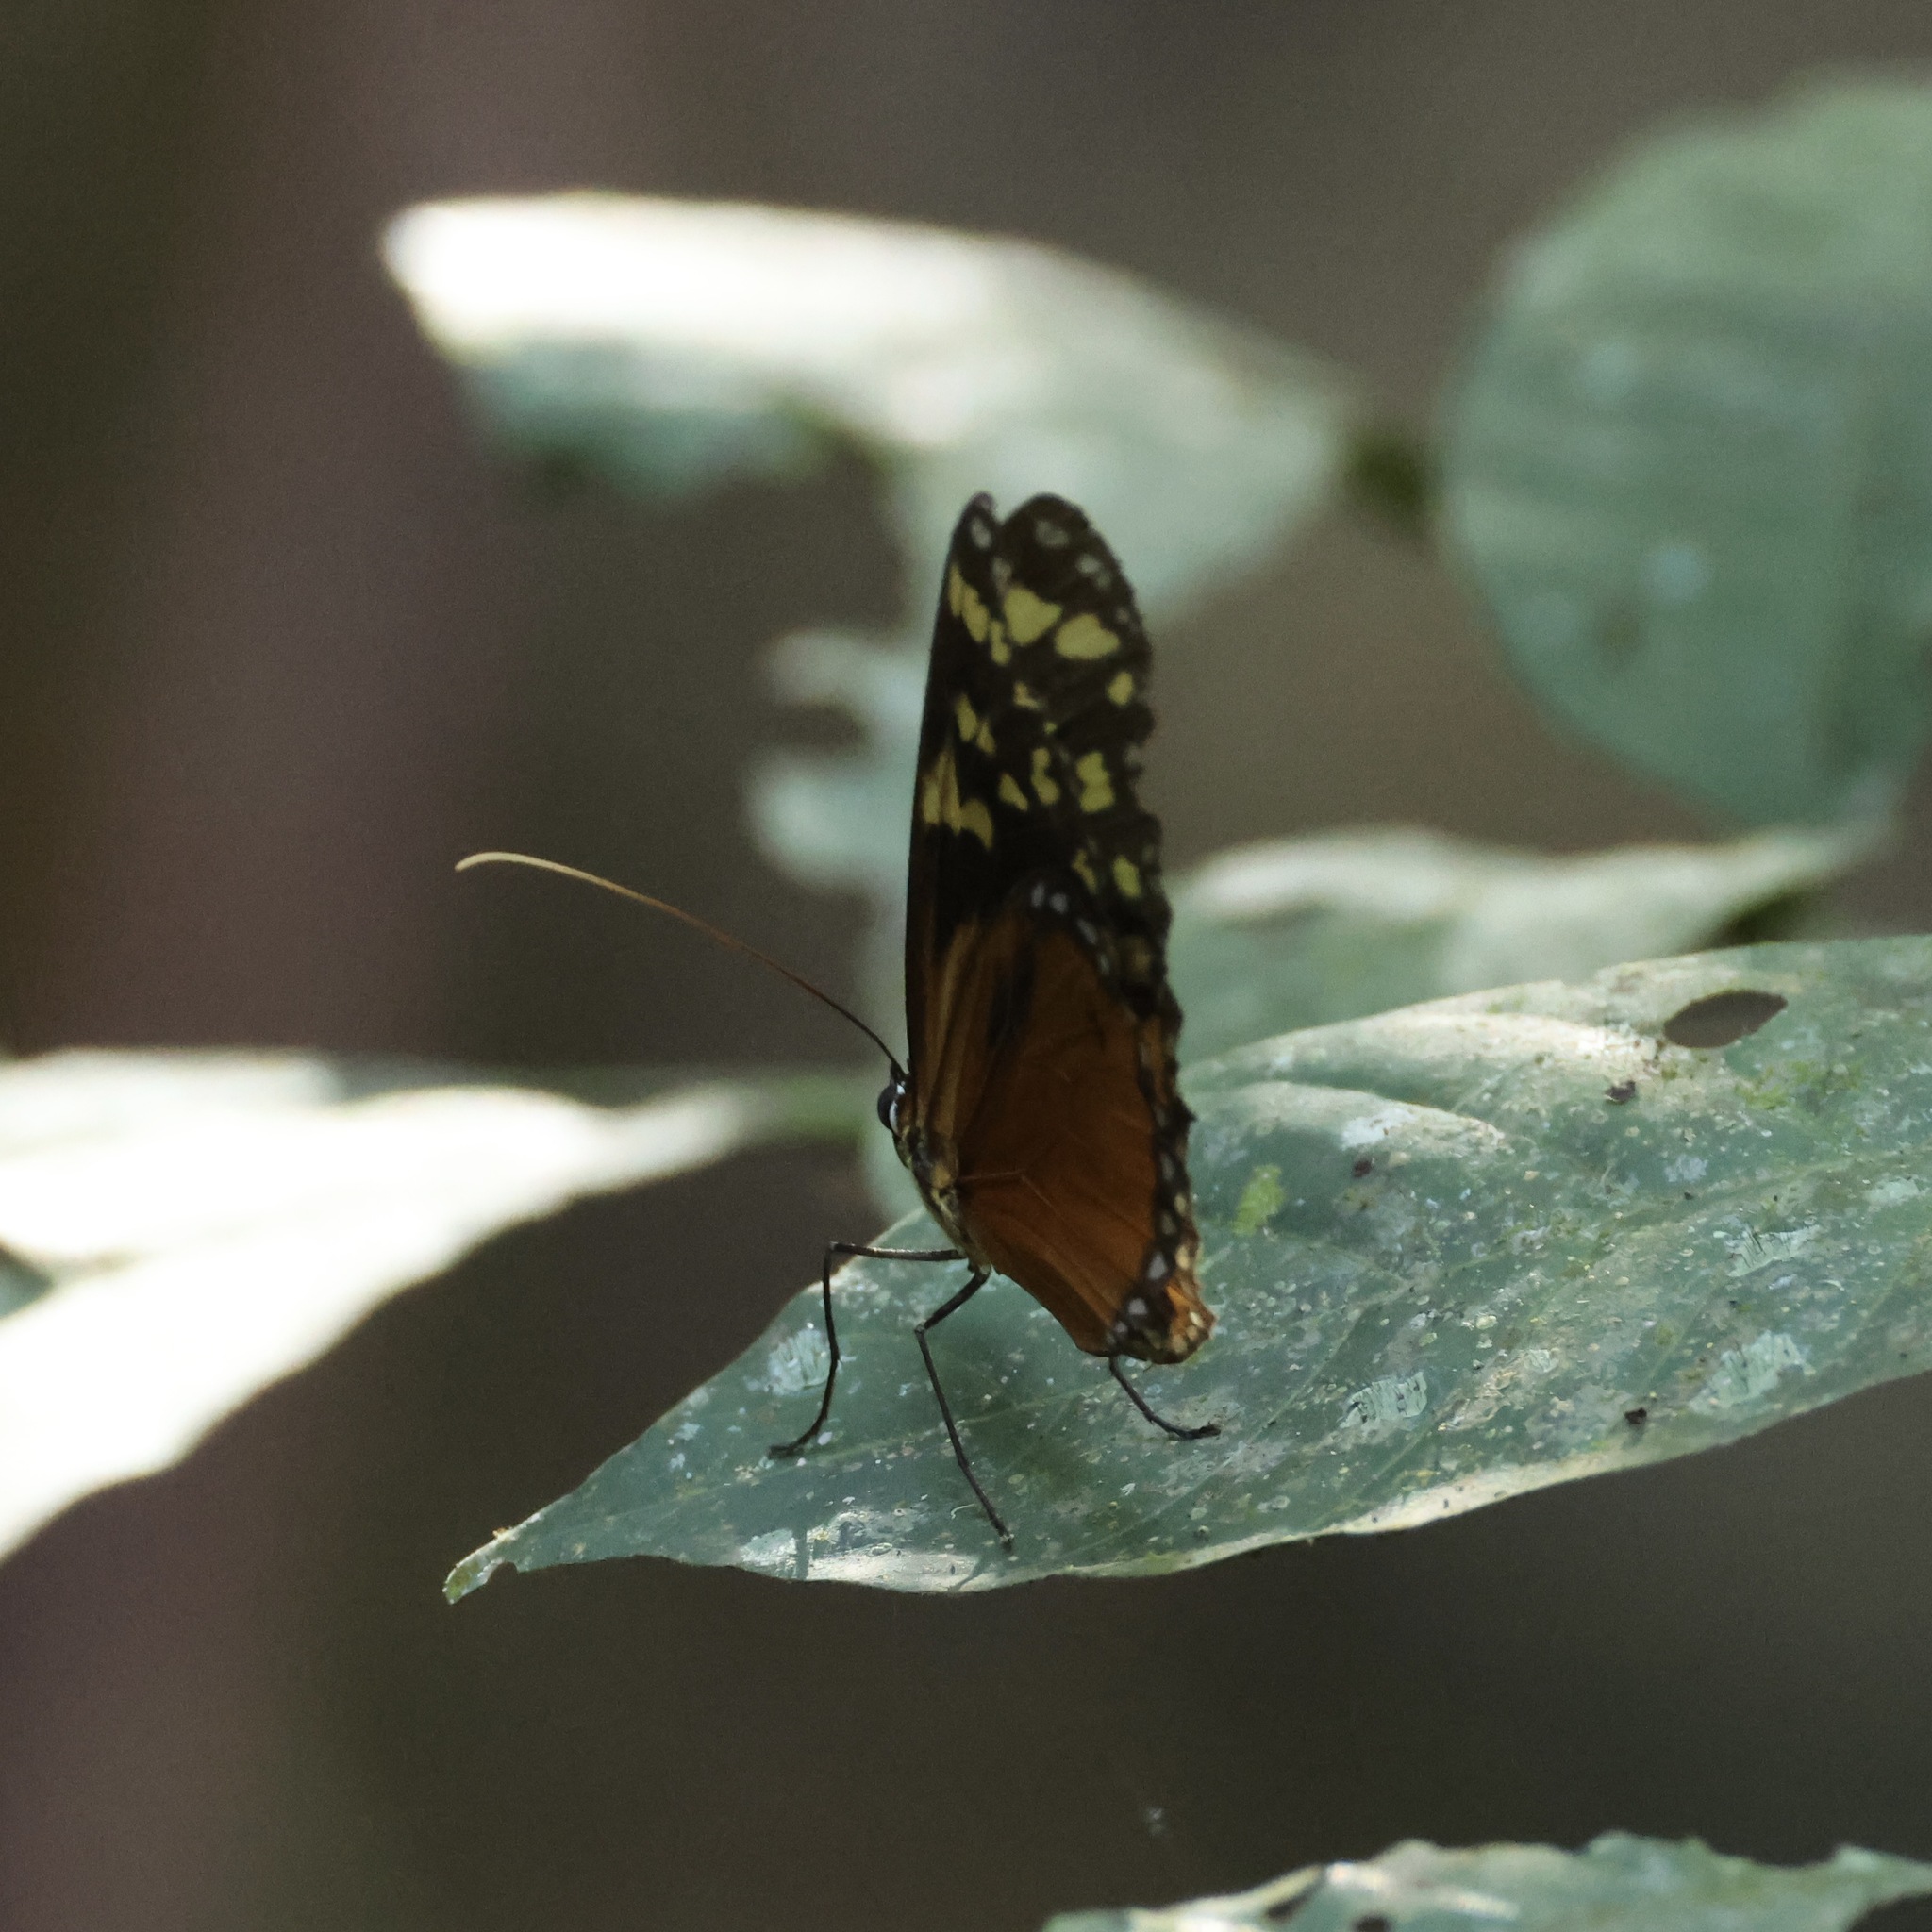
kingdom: Animalia
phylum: Arthropoda
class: Insecta
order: Lepidoptera
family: Nymphalidae
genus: Tithorea
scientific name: Tithorea harmonia
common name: Harmonia tigerwing
